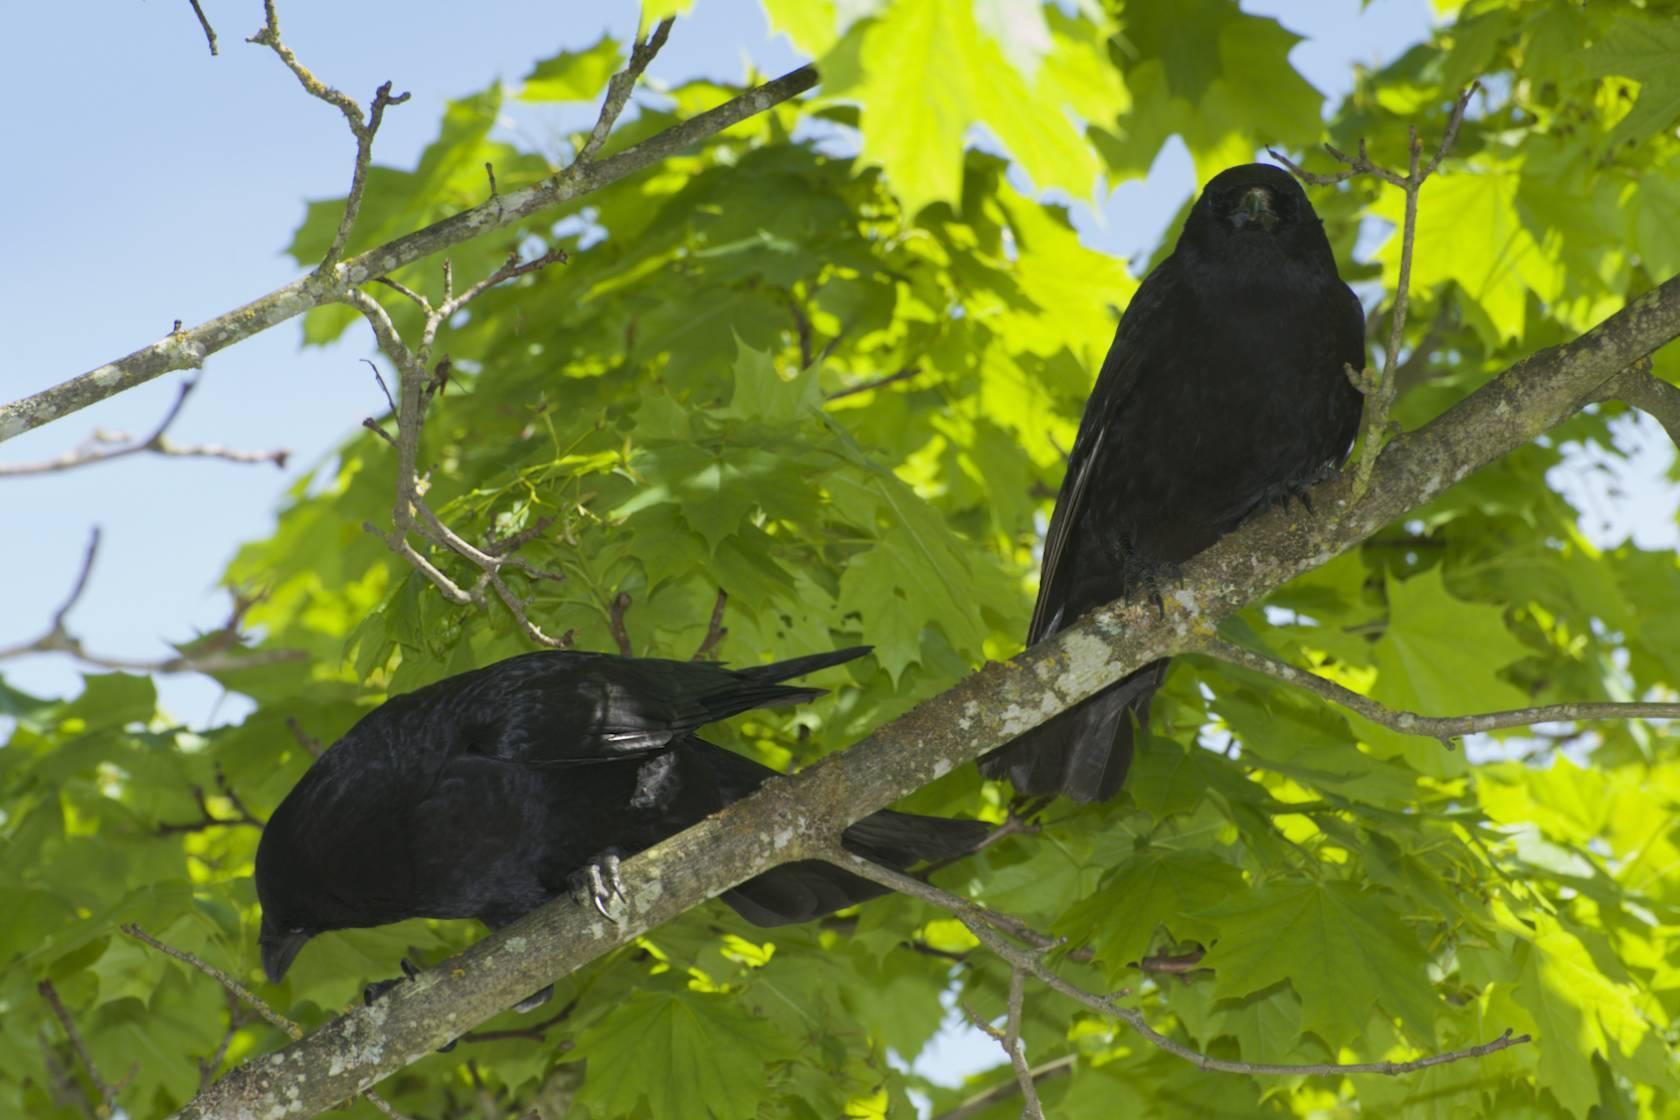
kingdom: Animalia
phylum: Chordata
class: Aves
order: Passeriformes
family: Corvidae
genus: Corvus
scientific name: Corvus brachyrhynchos
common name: American crow
